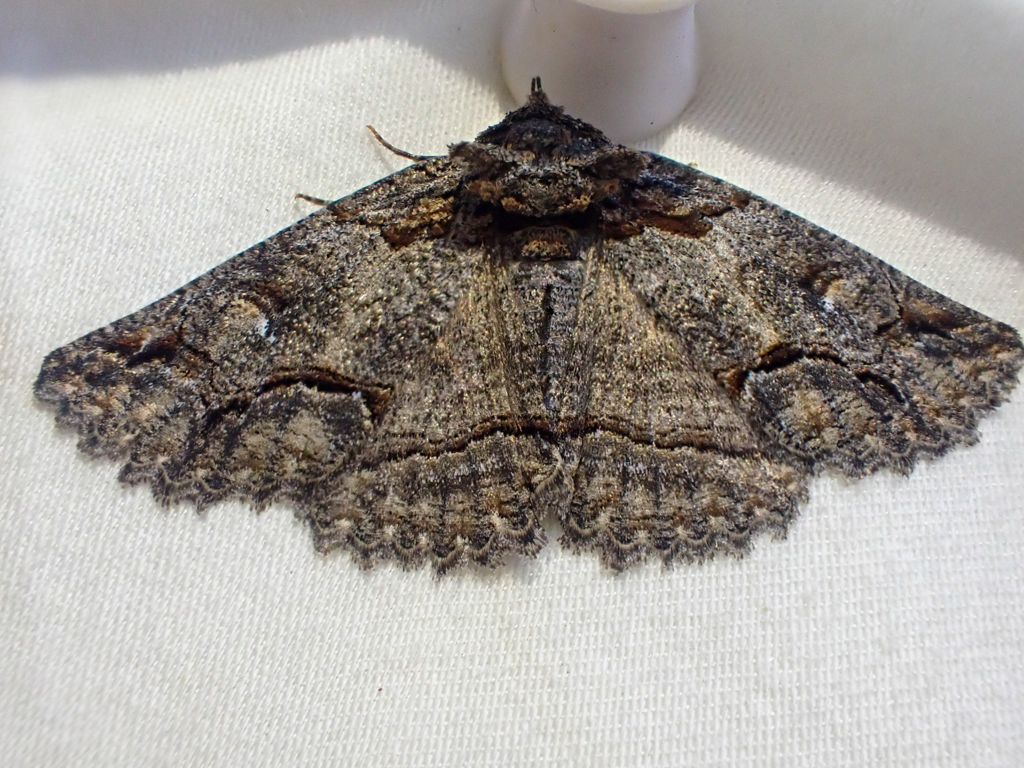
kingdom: Animalia
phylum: Arthropoda
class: Insecta
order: Lepidoptera
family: Erebidae
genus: Zale
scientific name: Zale termina
